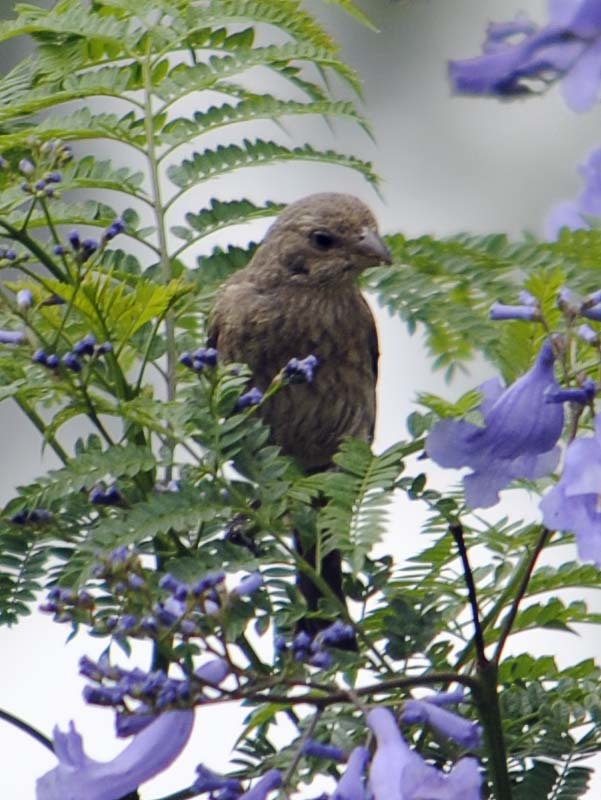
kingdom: Animalia
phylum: Chordata
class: Aves
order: Passeriformes
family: Fringillidae
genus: Haemorhous
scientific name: Haemorhous mexicanus
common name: House finch
